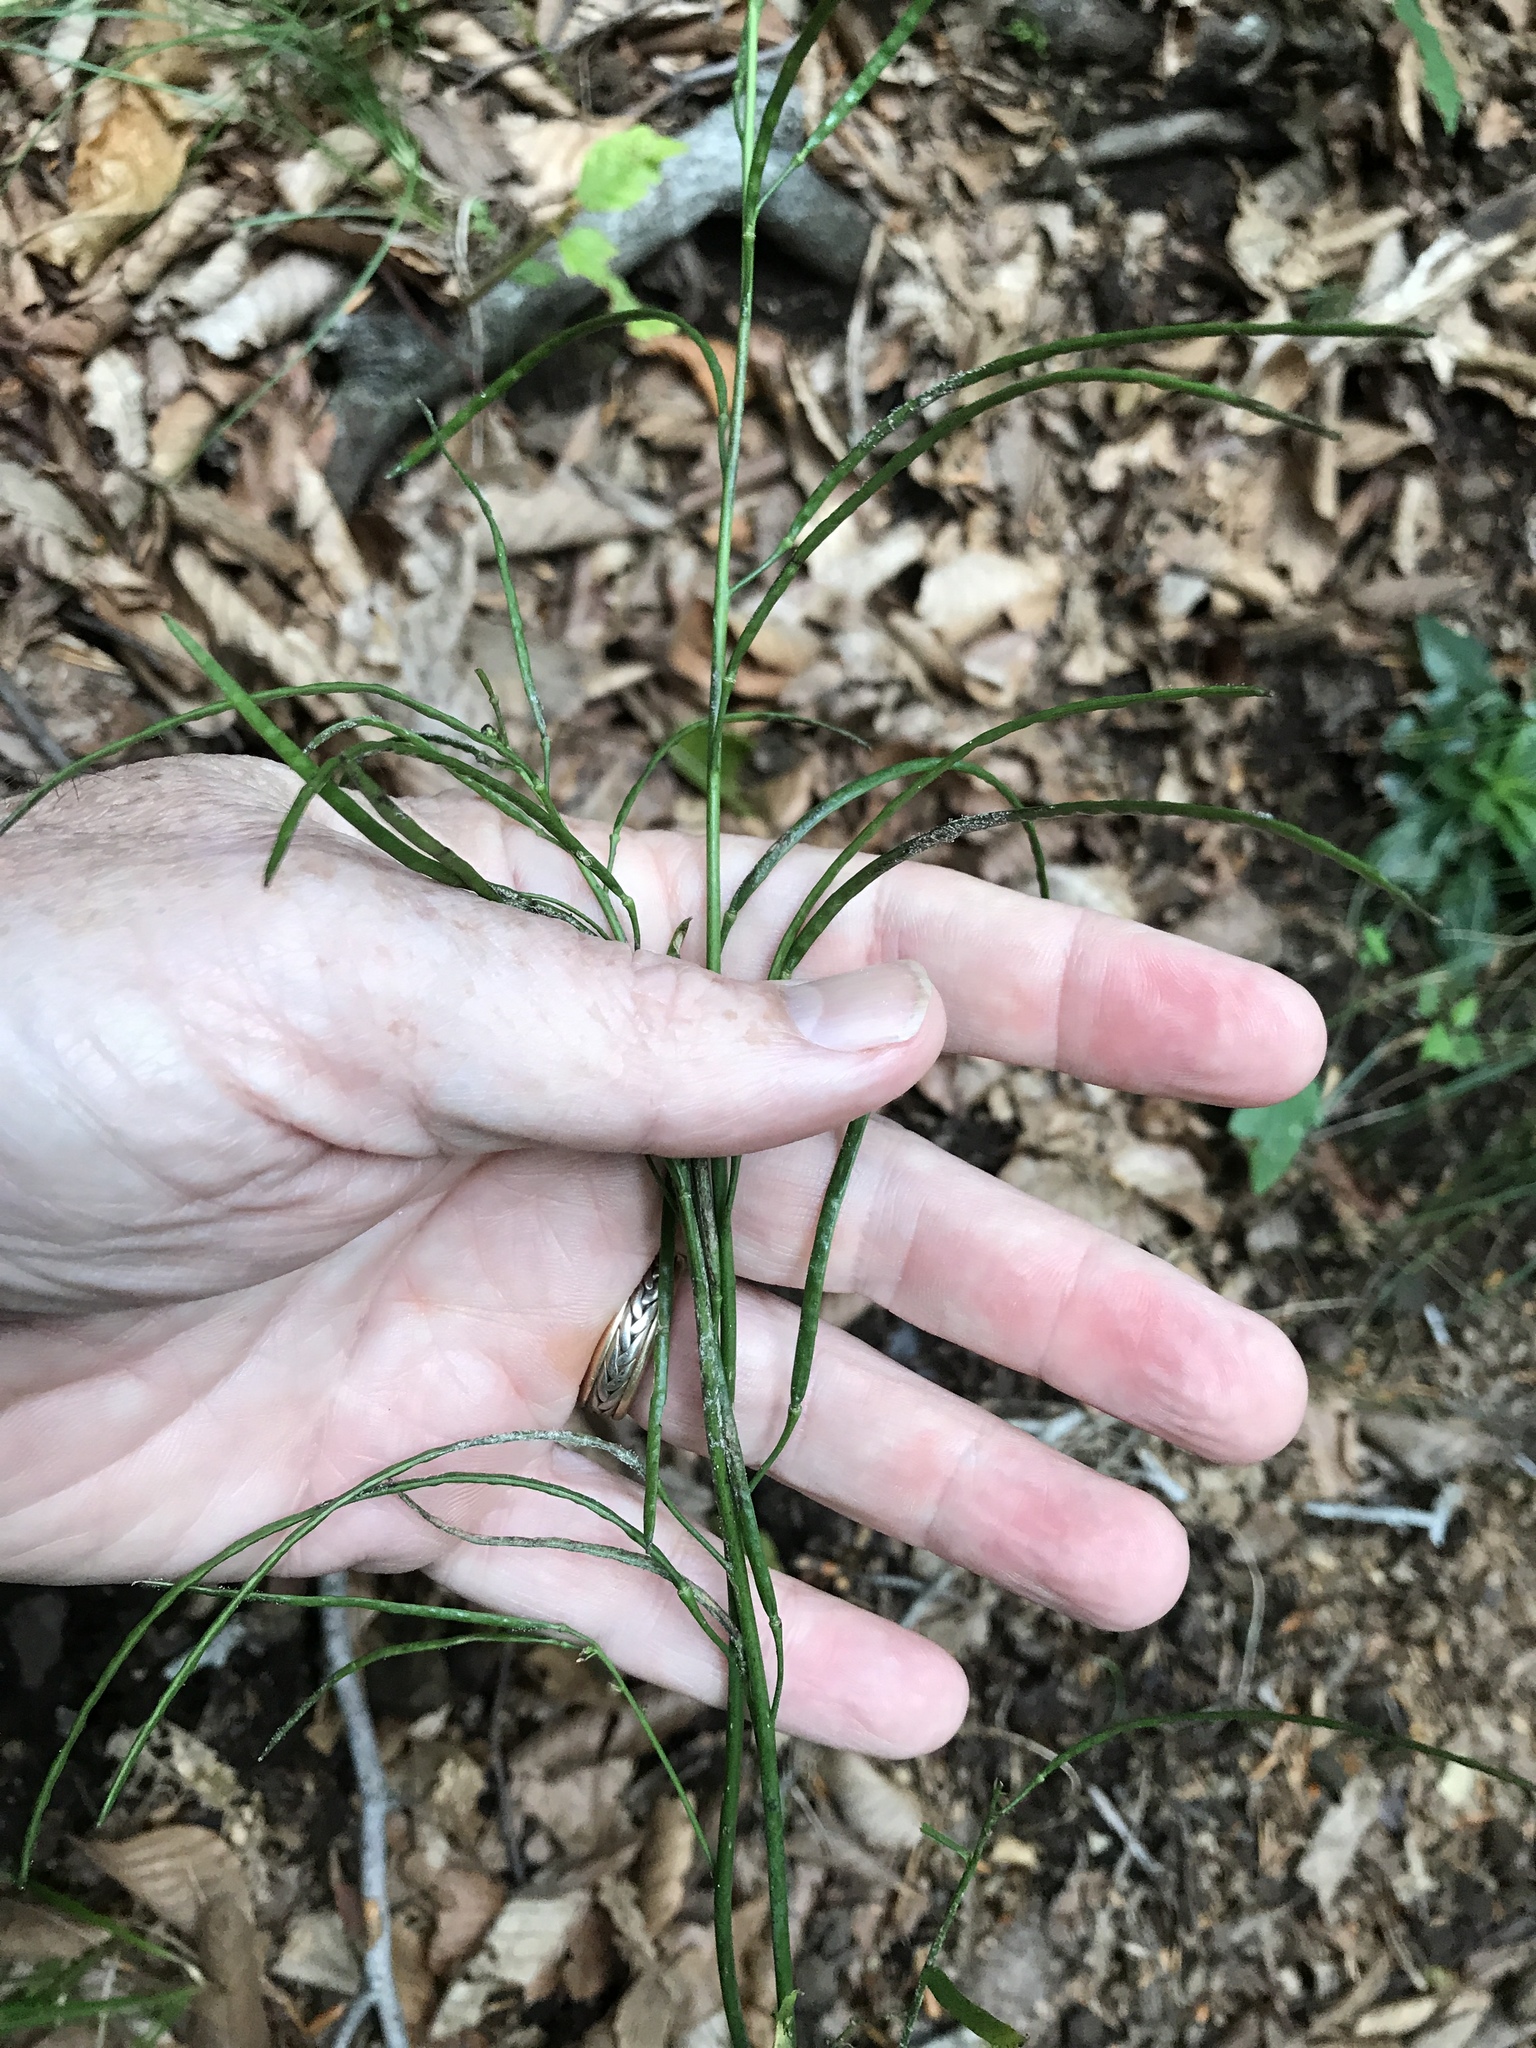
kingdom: Plantae
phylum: Tracheophyta
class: Magnoliopsida
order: Brassicales
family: Brassicaceae
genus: Borodinia
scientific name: Borodinia laevigata
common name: Smooth rockcress
